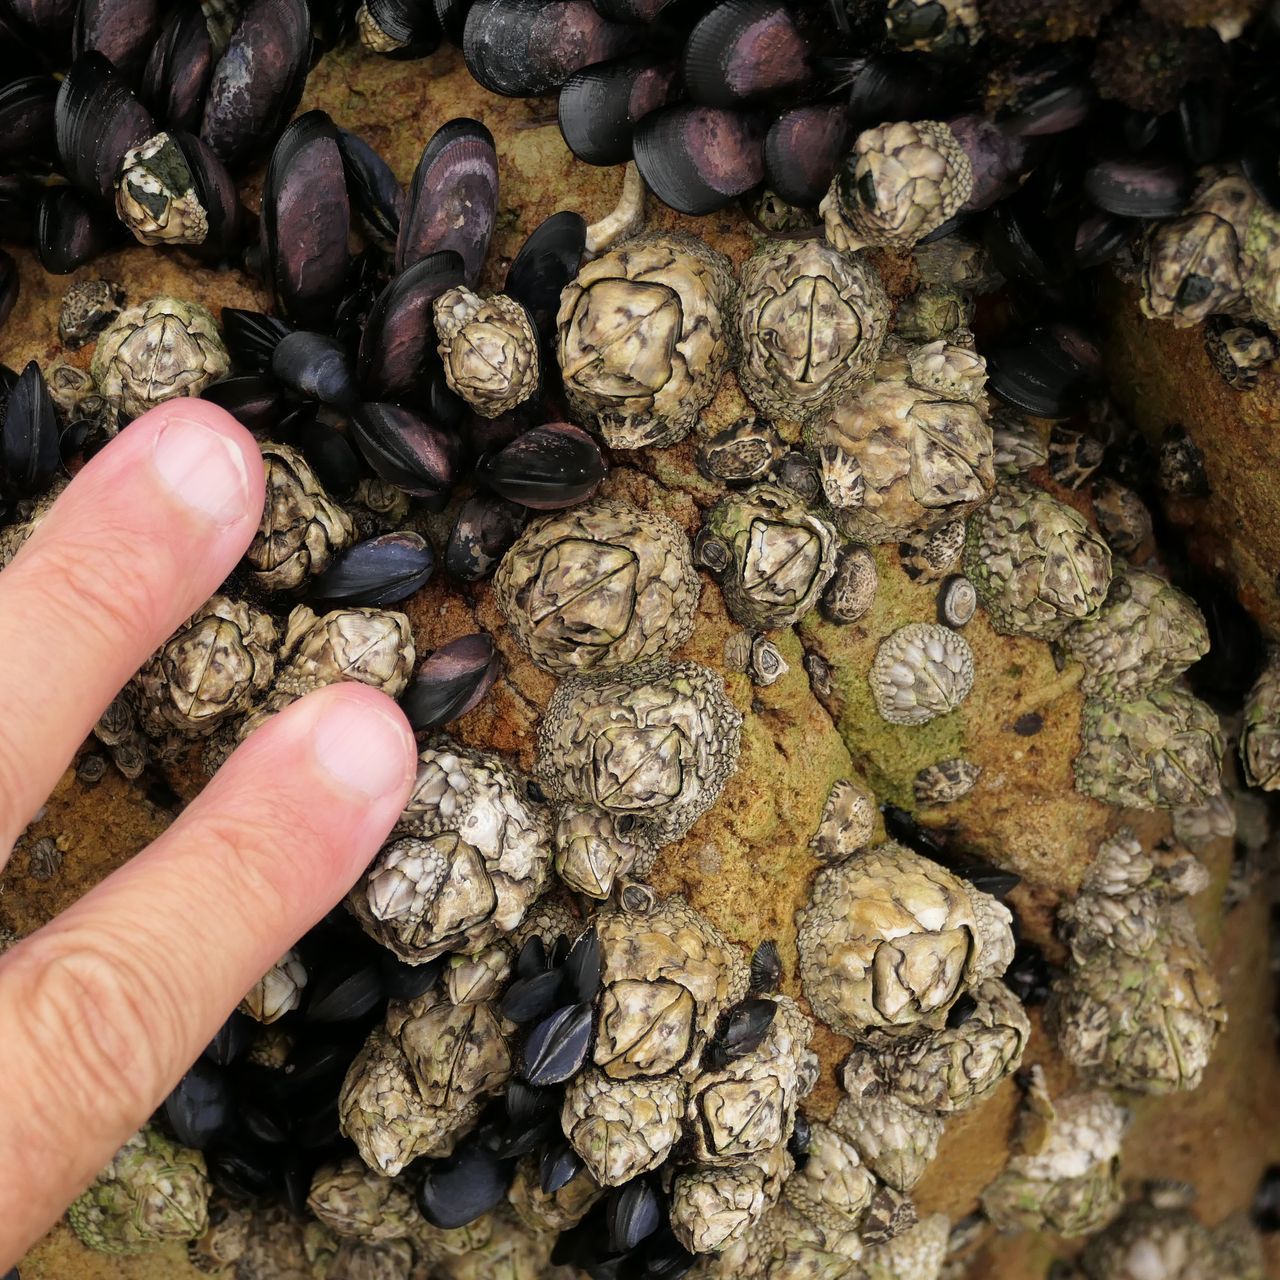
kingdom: Animalia
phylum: Arthropoda
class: Maxillopoda
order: Sessilia
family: Catophragmidae
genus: Catomerus
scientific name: Catomerus polymerus
